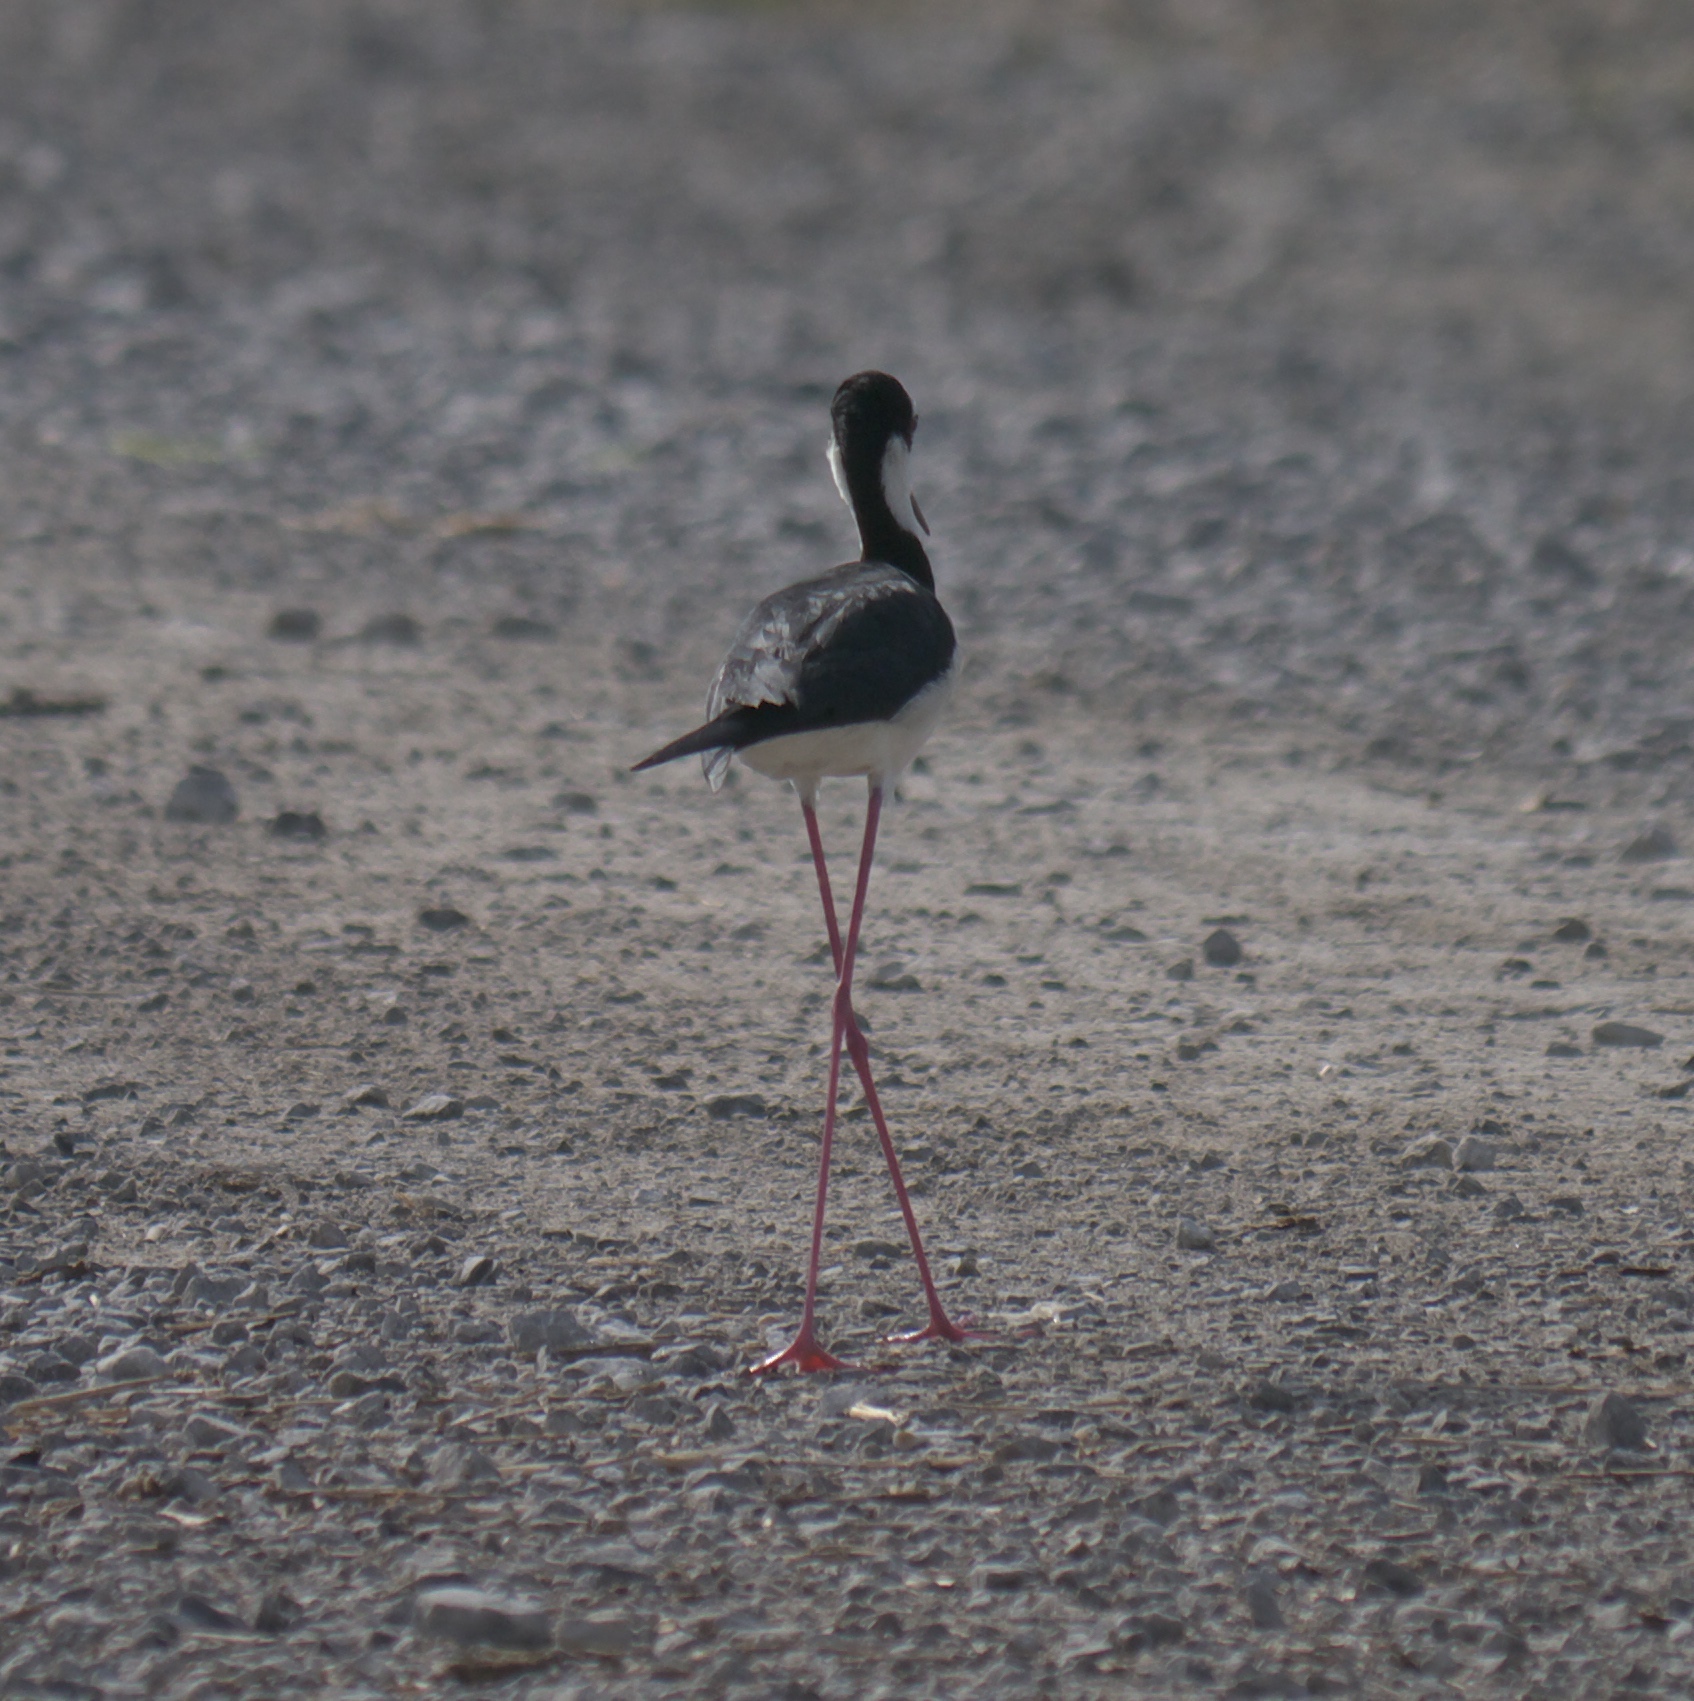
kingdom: Animalia
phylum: Chordata
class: Aves
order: Charadriiformes
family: Recurvirostridae
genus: Himantopus
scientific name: Himantopus mexicanus
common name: Black-necked stilt
